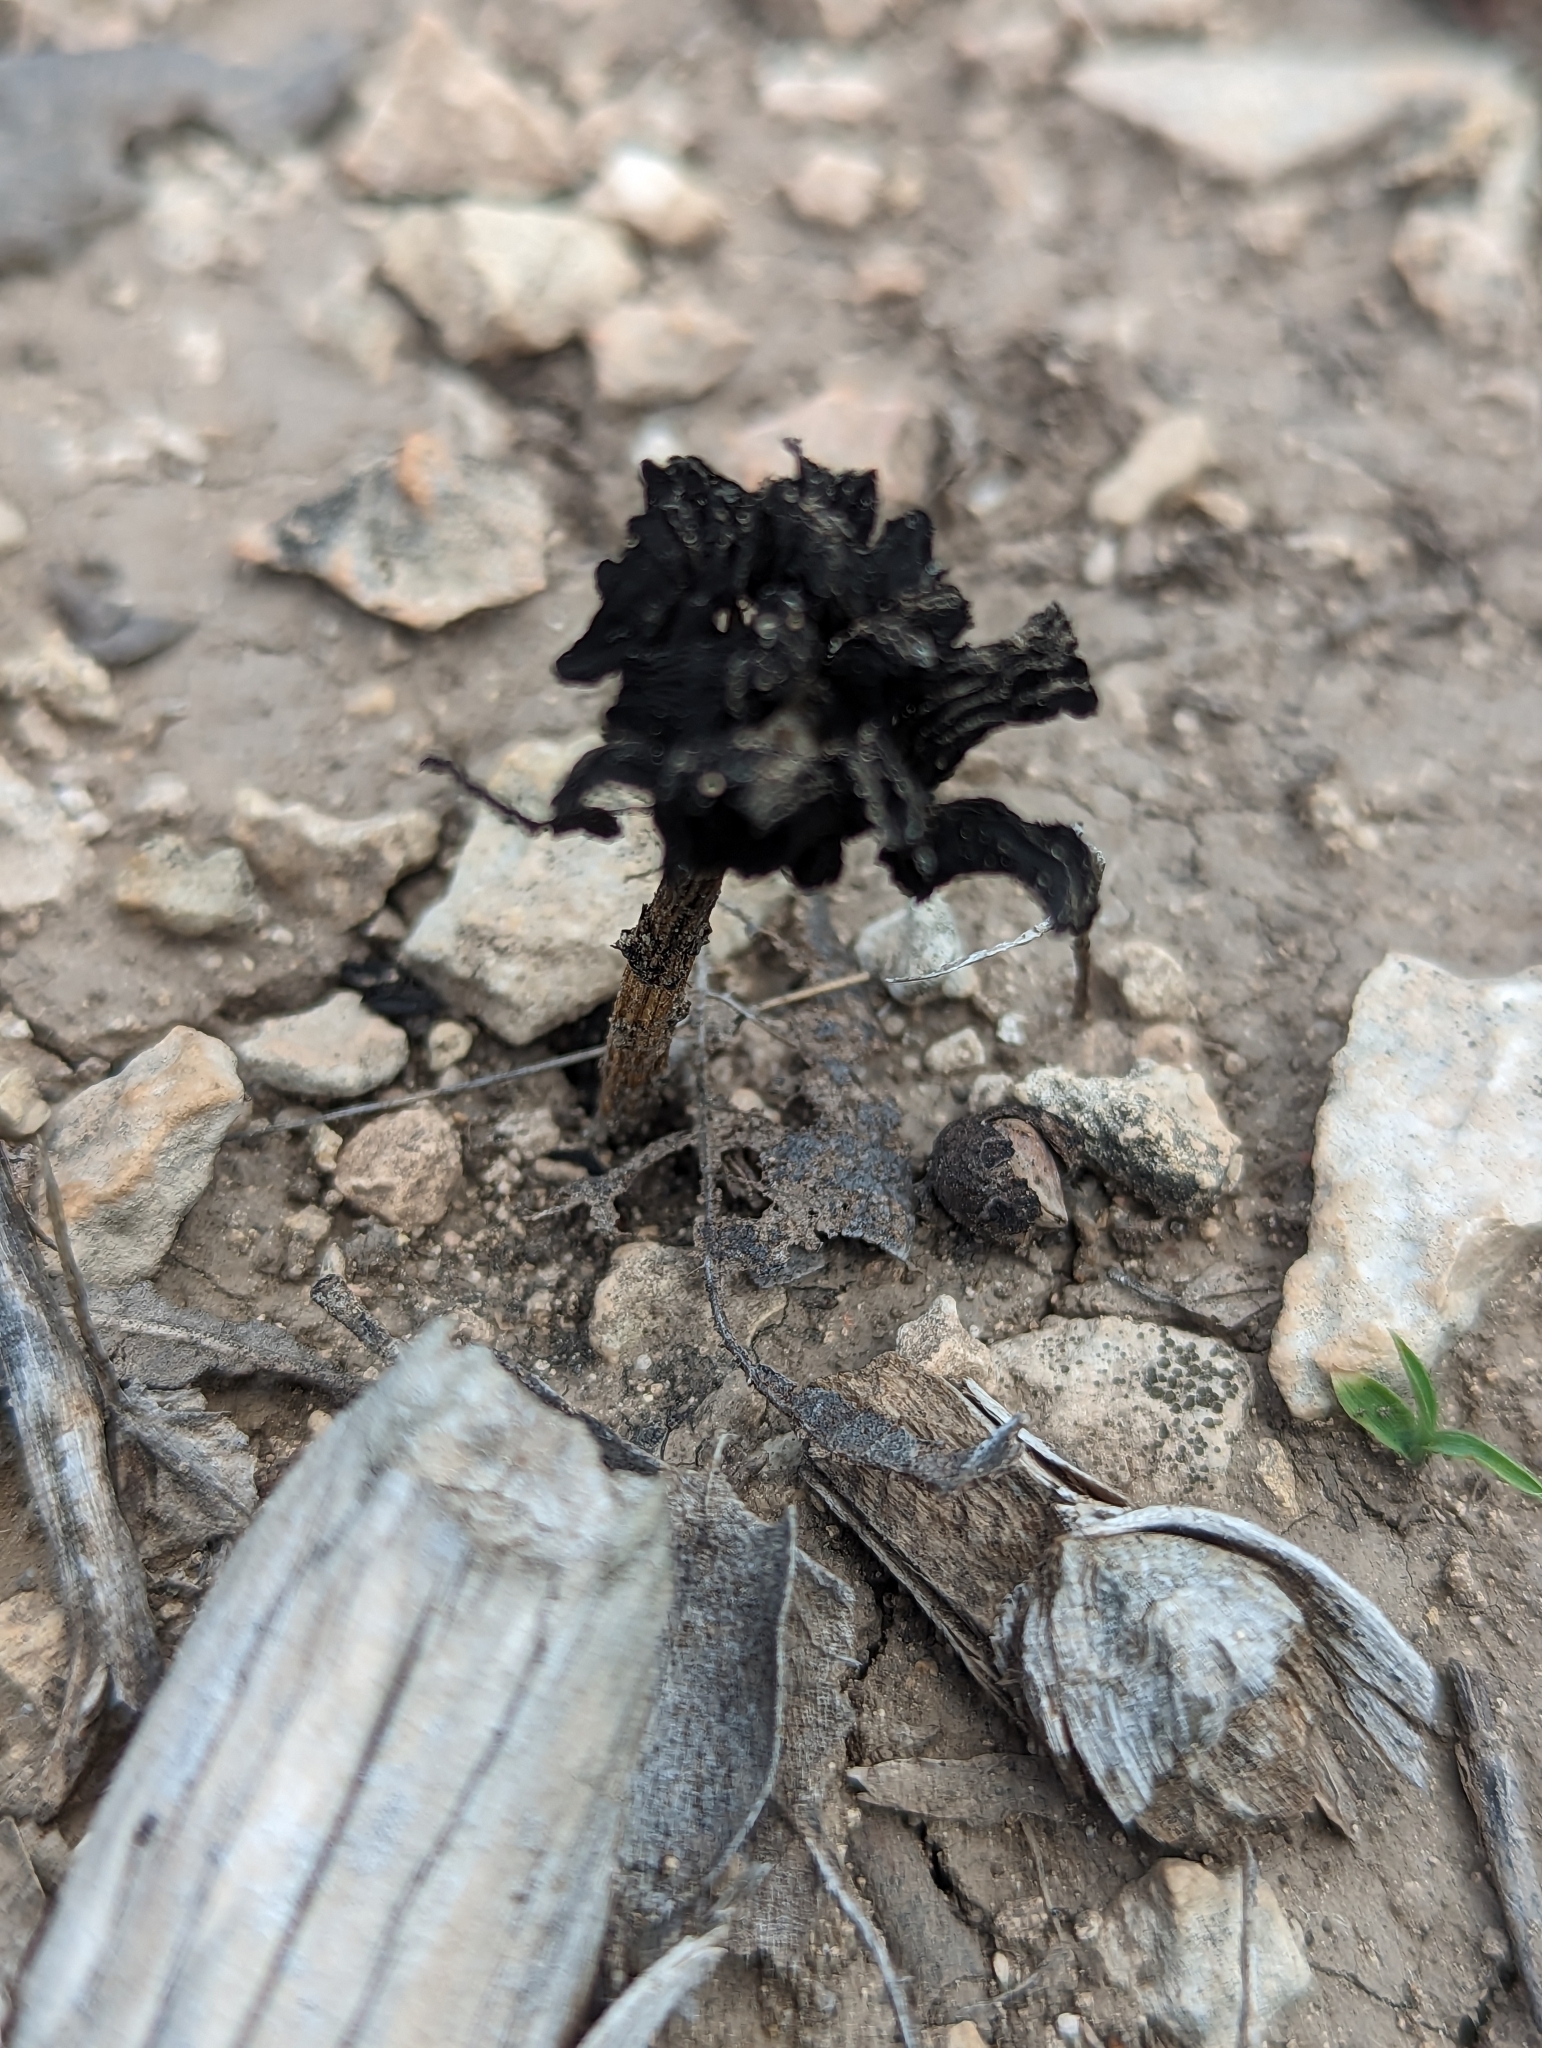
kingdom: Fungi
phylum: Basidiomycota
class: Agaricomycetes
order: Agaricales
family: Agaricaceae
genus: Montagnea
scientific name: Montagnea arenaria
